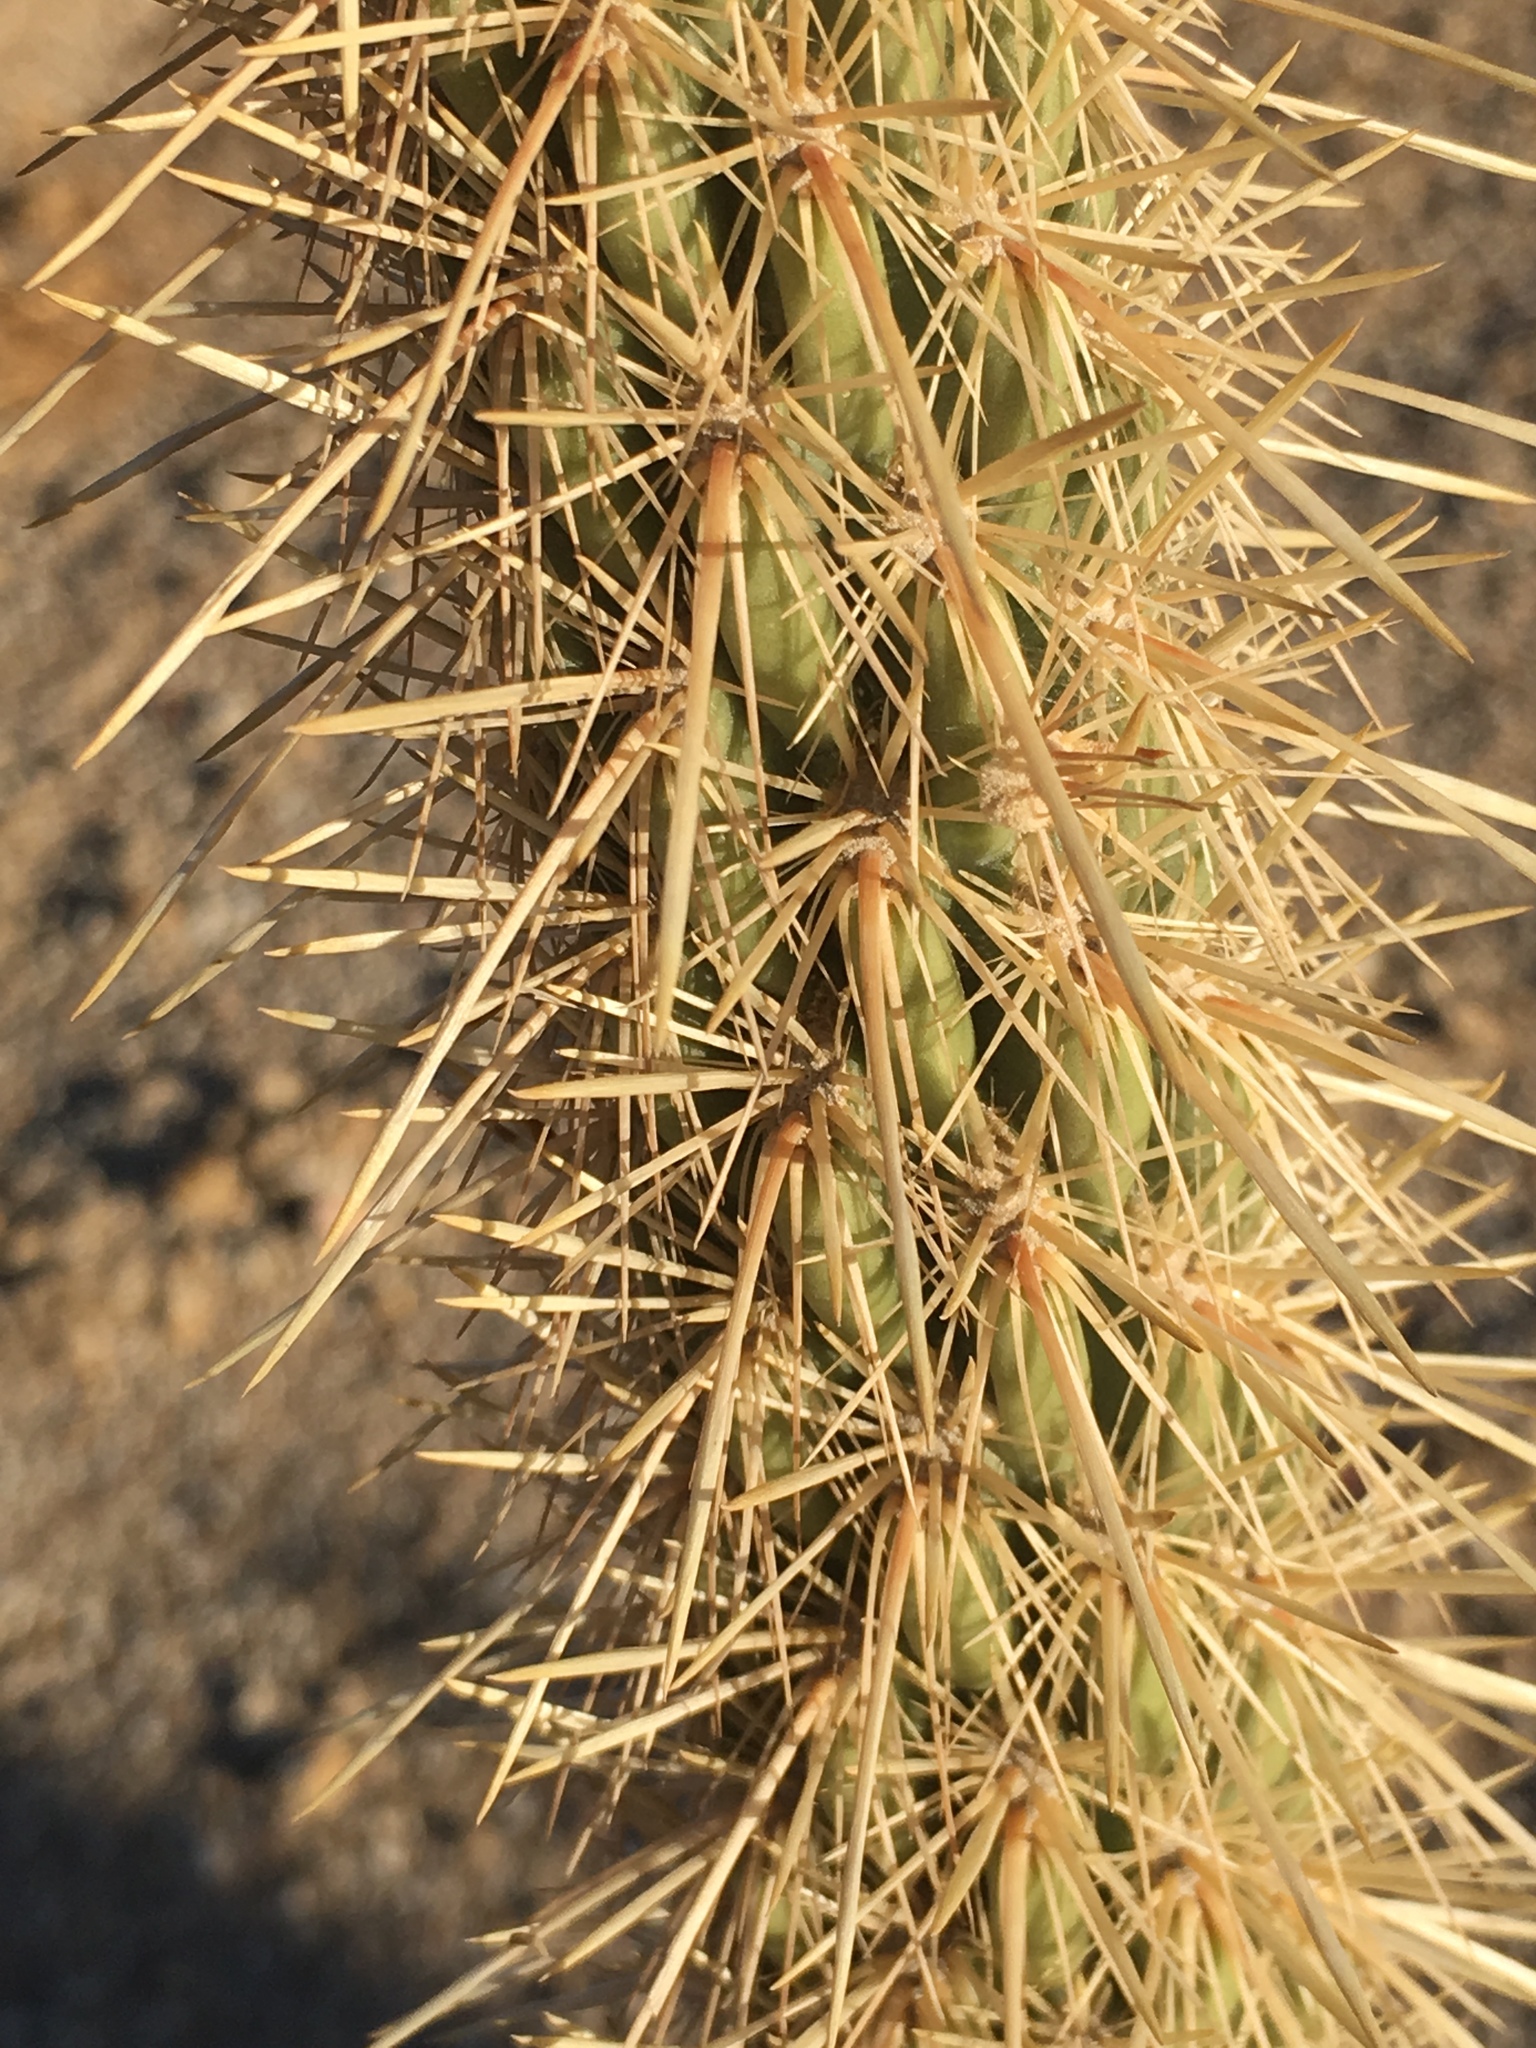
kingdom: Plantae
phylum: Tracheophyta
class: Magnoliopsida
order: Caryophyllales
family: Cactaceae
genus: Cylindropuntia
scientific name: Cylindropuntia ganderi
